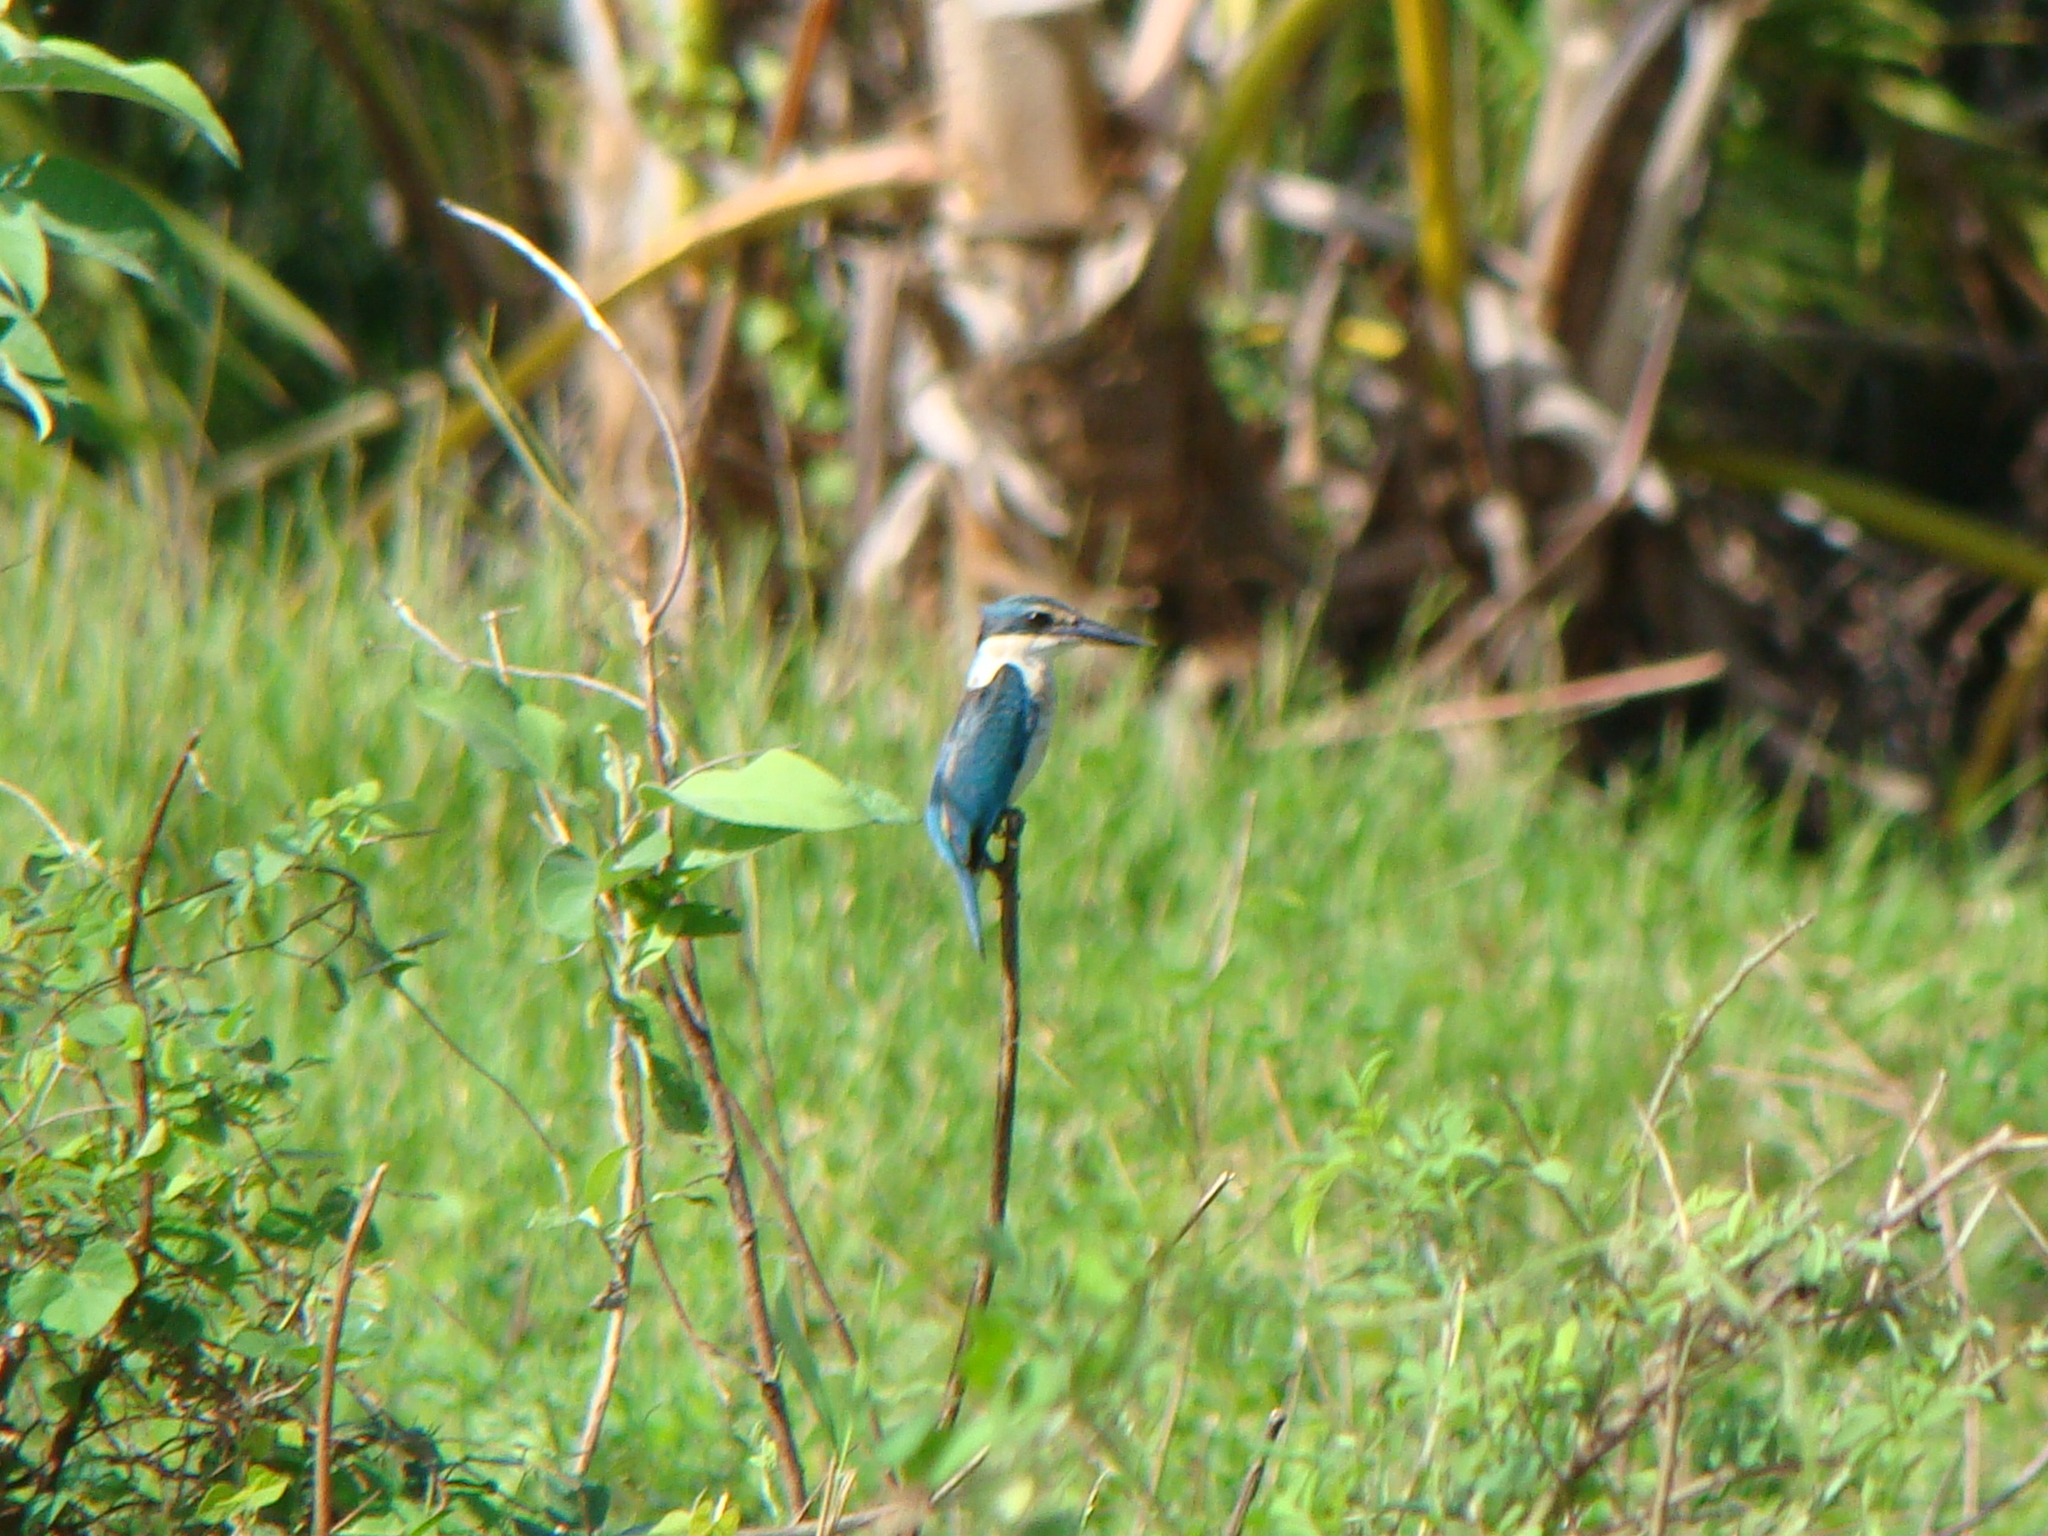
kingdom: Animalia
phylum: Chordata
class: Aves
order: Coraciiformes
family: Alcedinidae
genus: Todiramphus
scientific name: Todiramphus sanctus
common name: Sacred kingfisher
